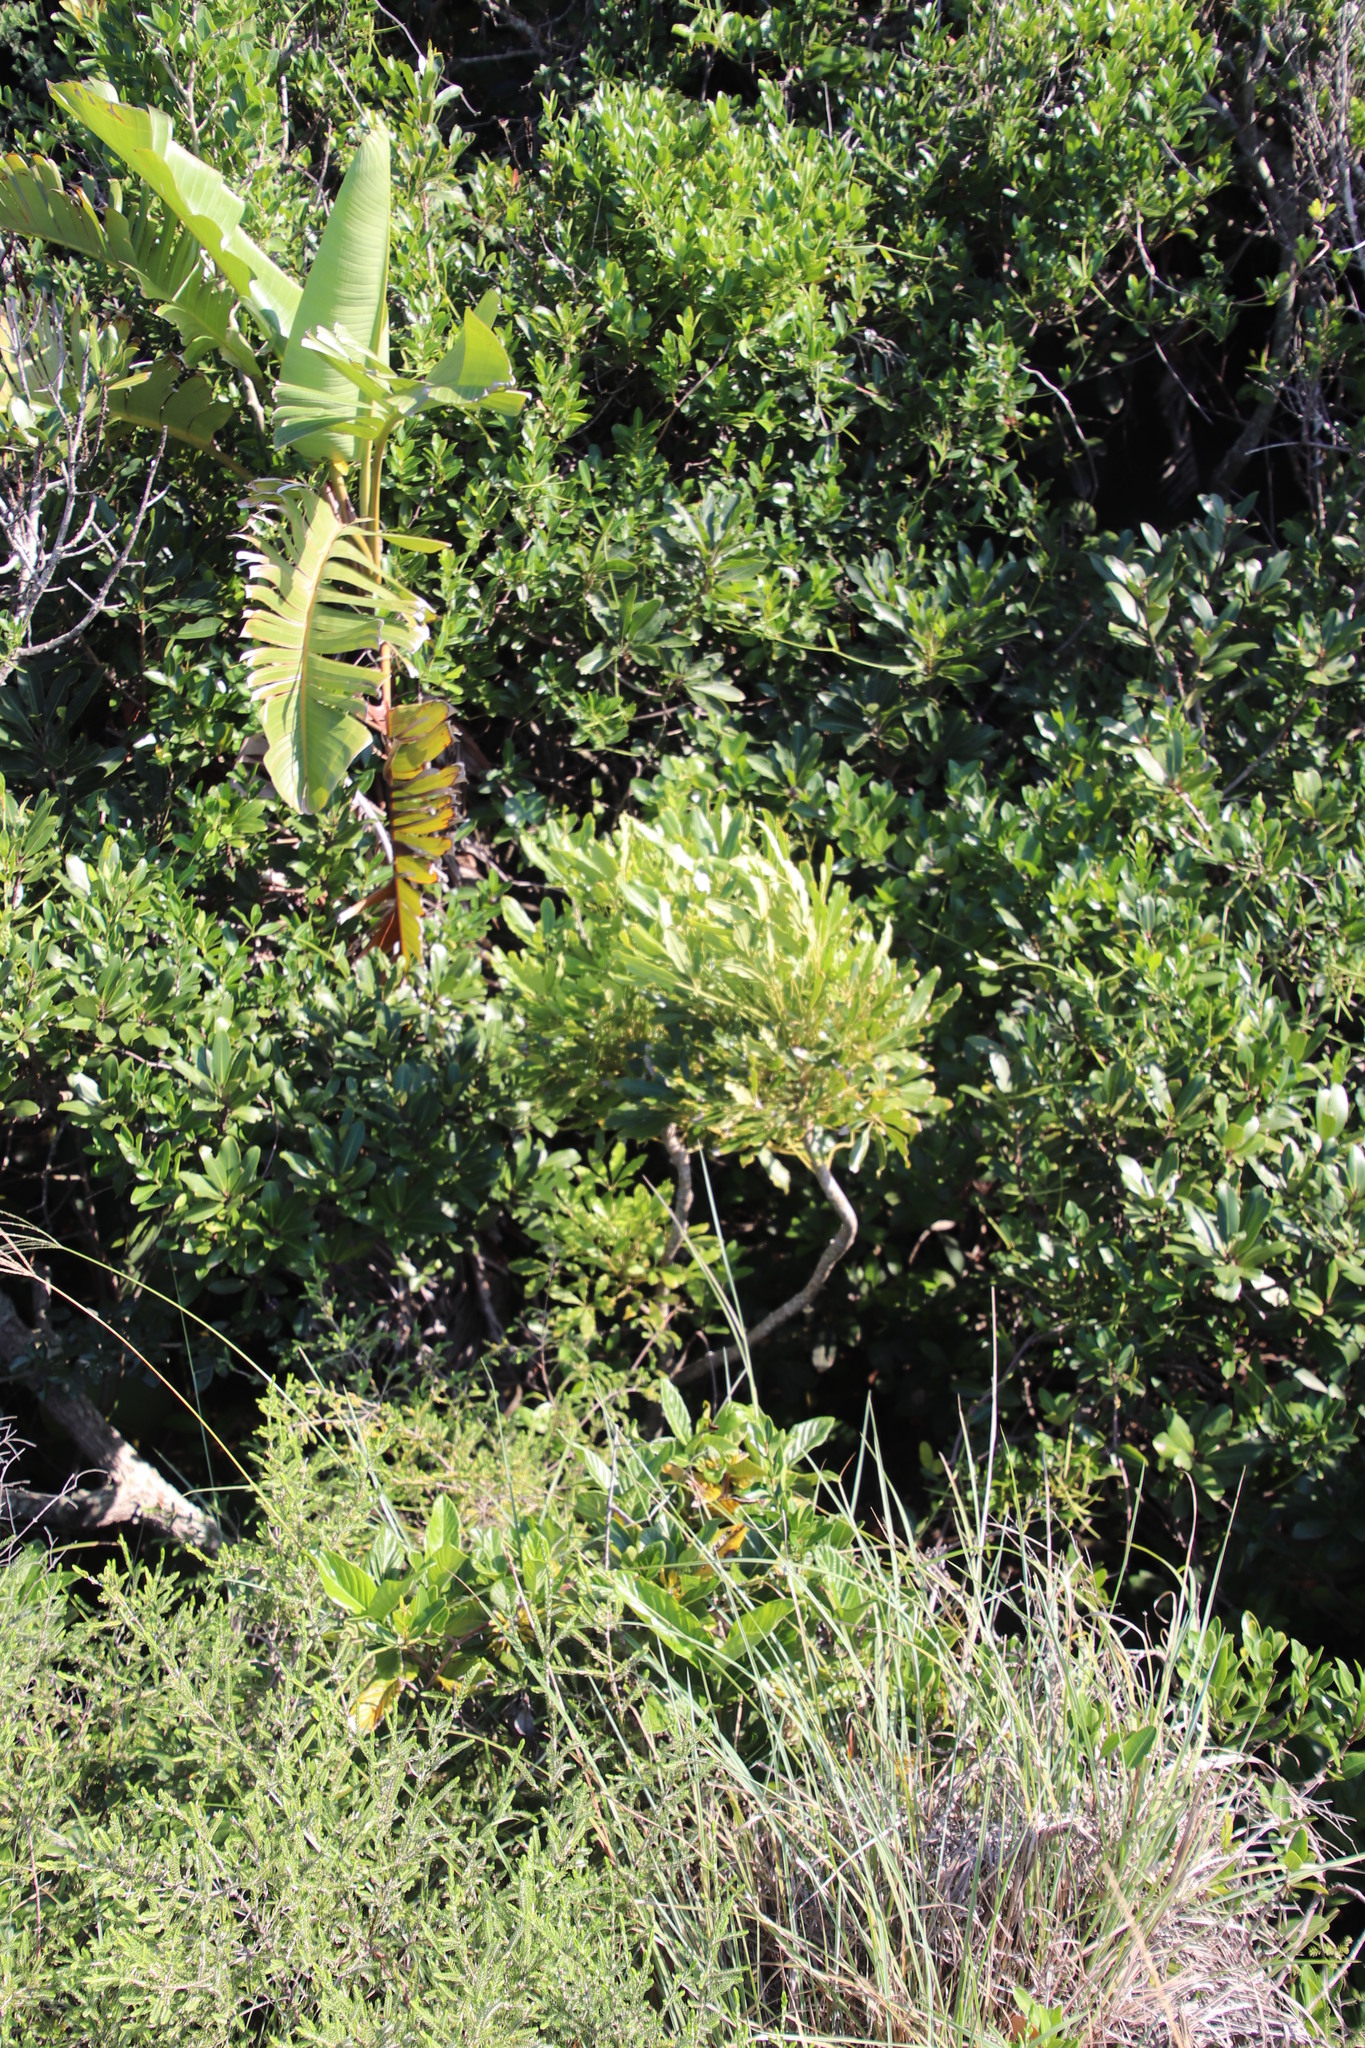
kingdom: Plantae
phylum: Tracheophyta
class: Magnoliopsida
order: Apiales
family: Araliaceae
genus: Neocussonia
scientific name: Neocussonia umbellifera
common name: False cabbage tree
